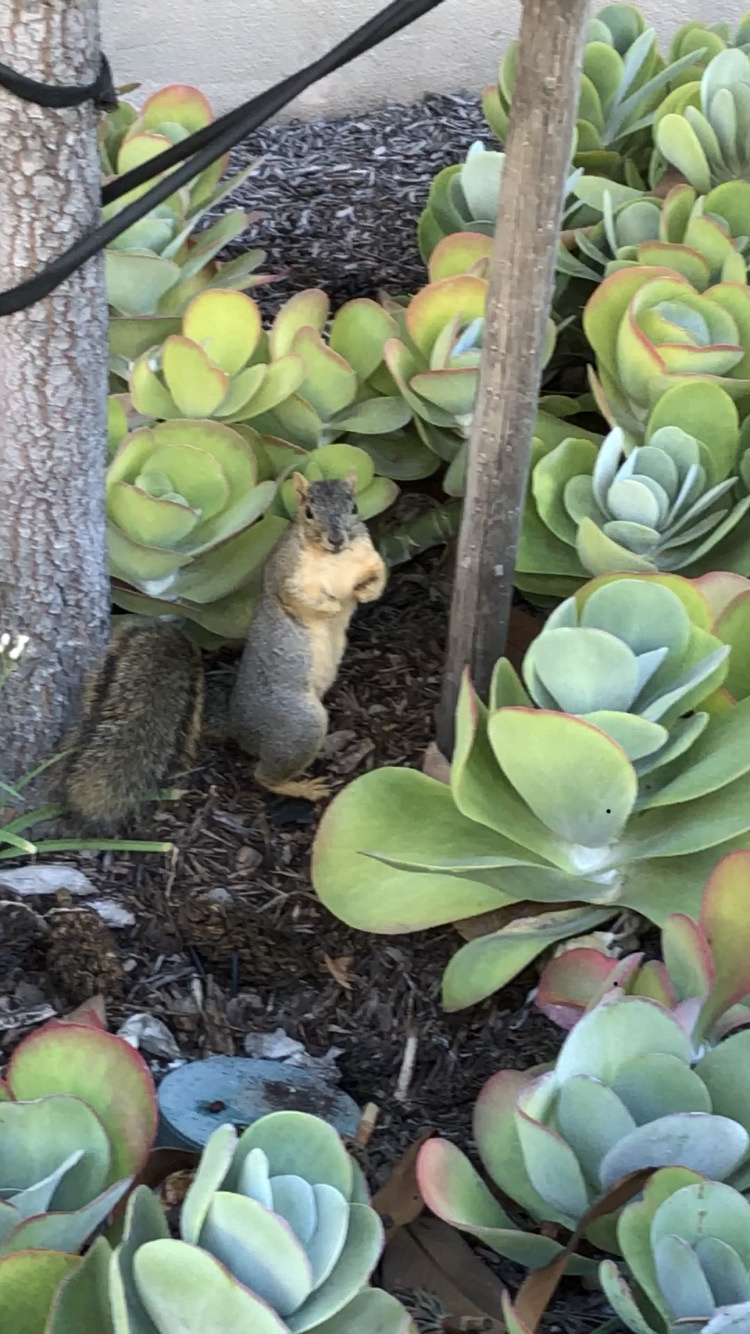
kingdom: Animalia
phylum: Chordata
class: Mammalia
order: Rodentia
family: Sciuridae
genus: Sciurus
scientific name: Sciurus niger
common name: Fox squirrel
